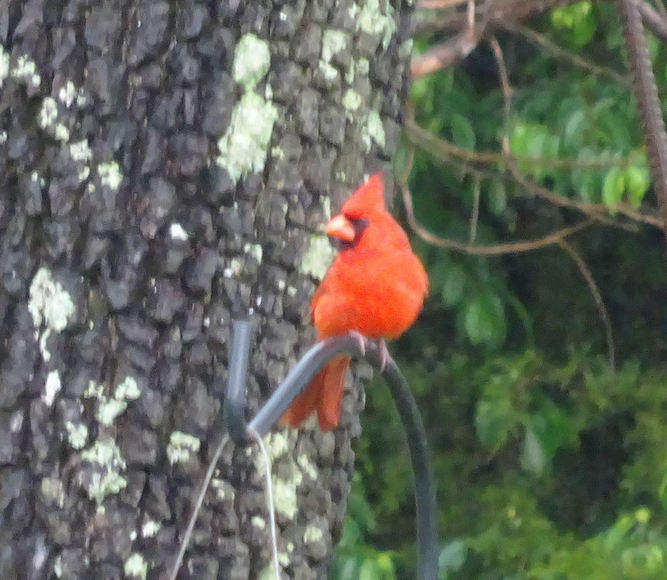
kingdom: Animalia
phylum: Chordata
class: Aves
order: Passeriformes
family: Cardinalidae
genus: Cardinalis
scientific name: Cardinalis cardinalis
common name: Northern cardinal
